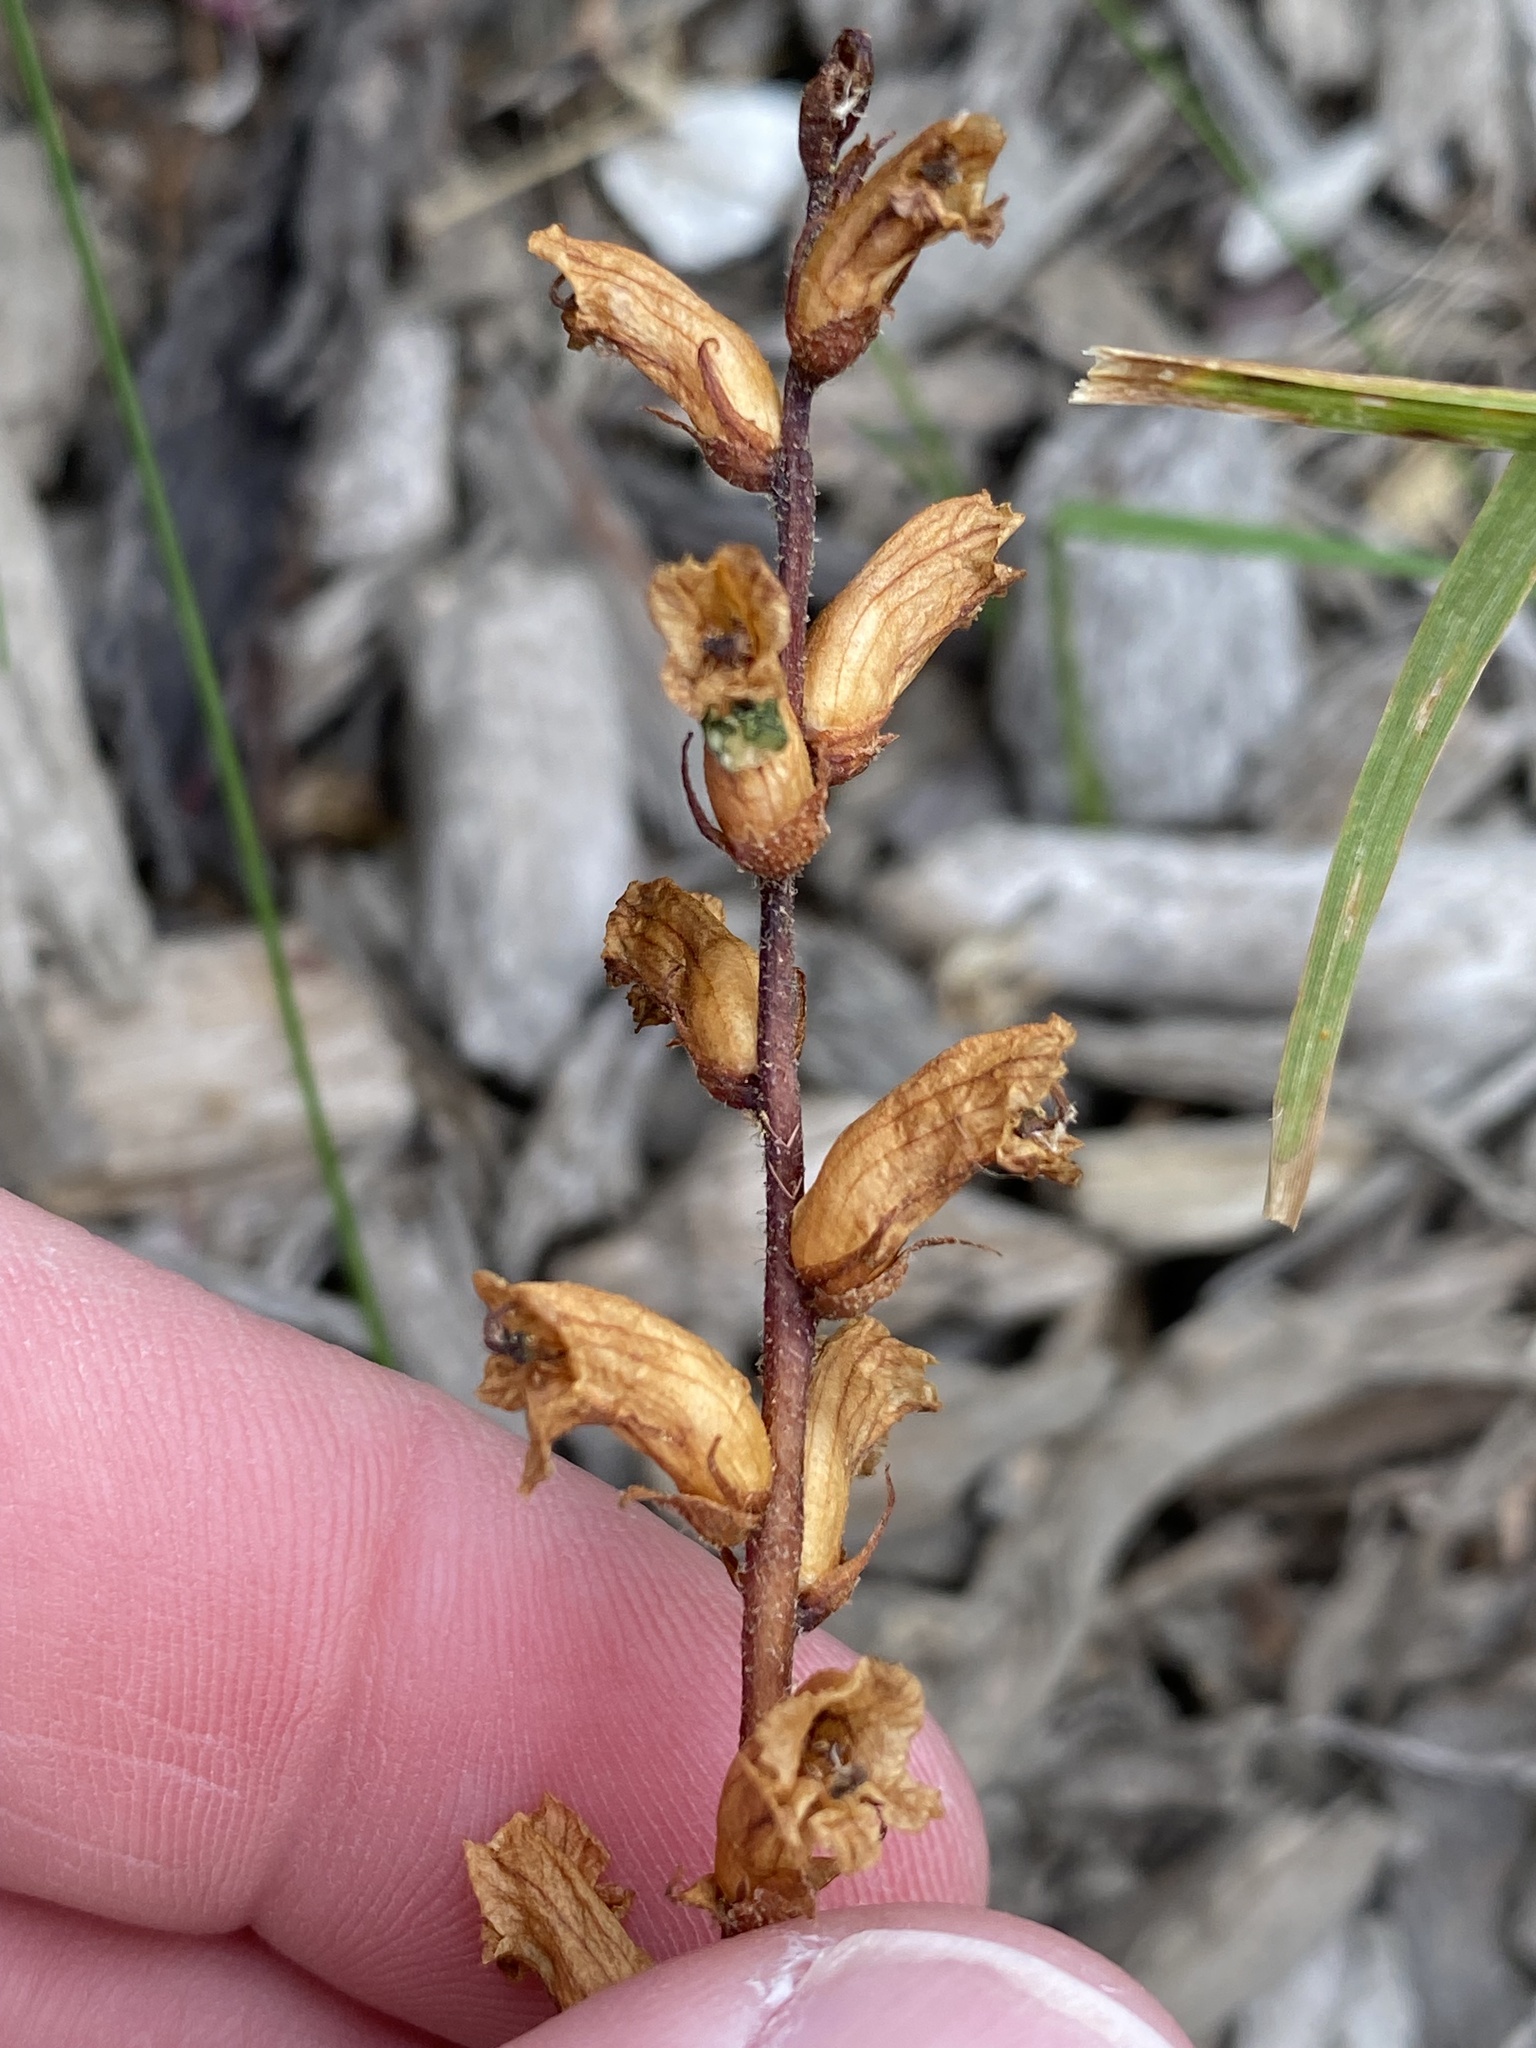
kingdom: Plantae
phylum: Tracheophyta
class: Magnoliopsida
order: Lamiales
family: Orobanchaceae
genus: Orobanche
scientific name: Orobanche minor
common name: Common broomrape
